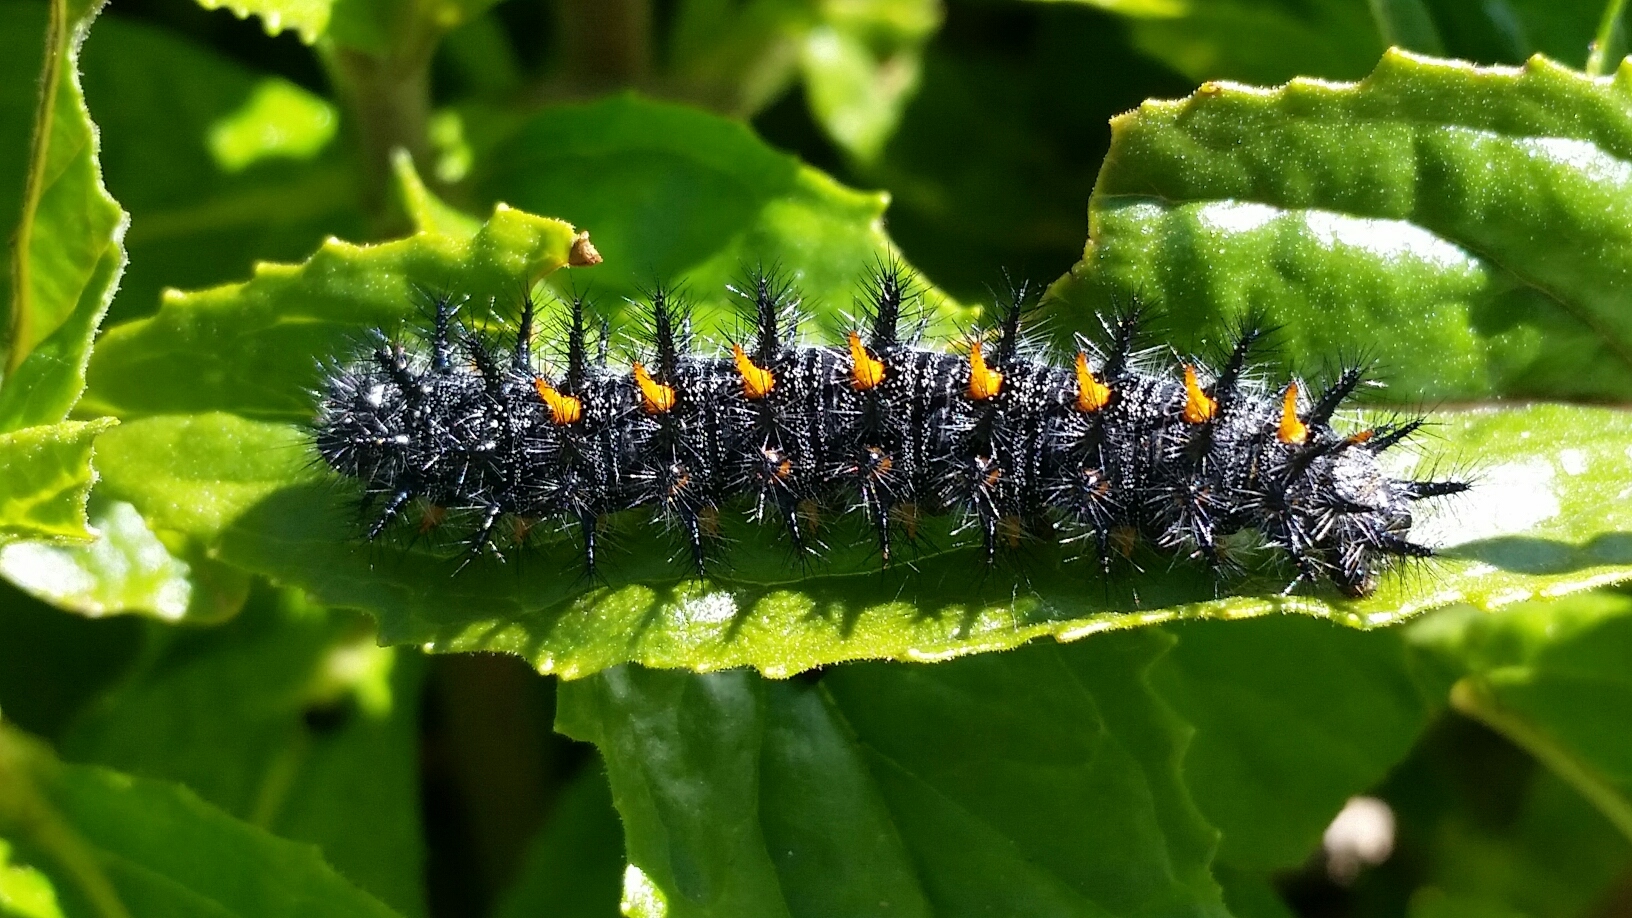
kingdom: Animalia
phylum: Arthropoda
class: Insecta
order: Lepidoptera
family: Nymphalidae
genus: Occidryas
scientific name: Occidryas chalcedona
